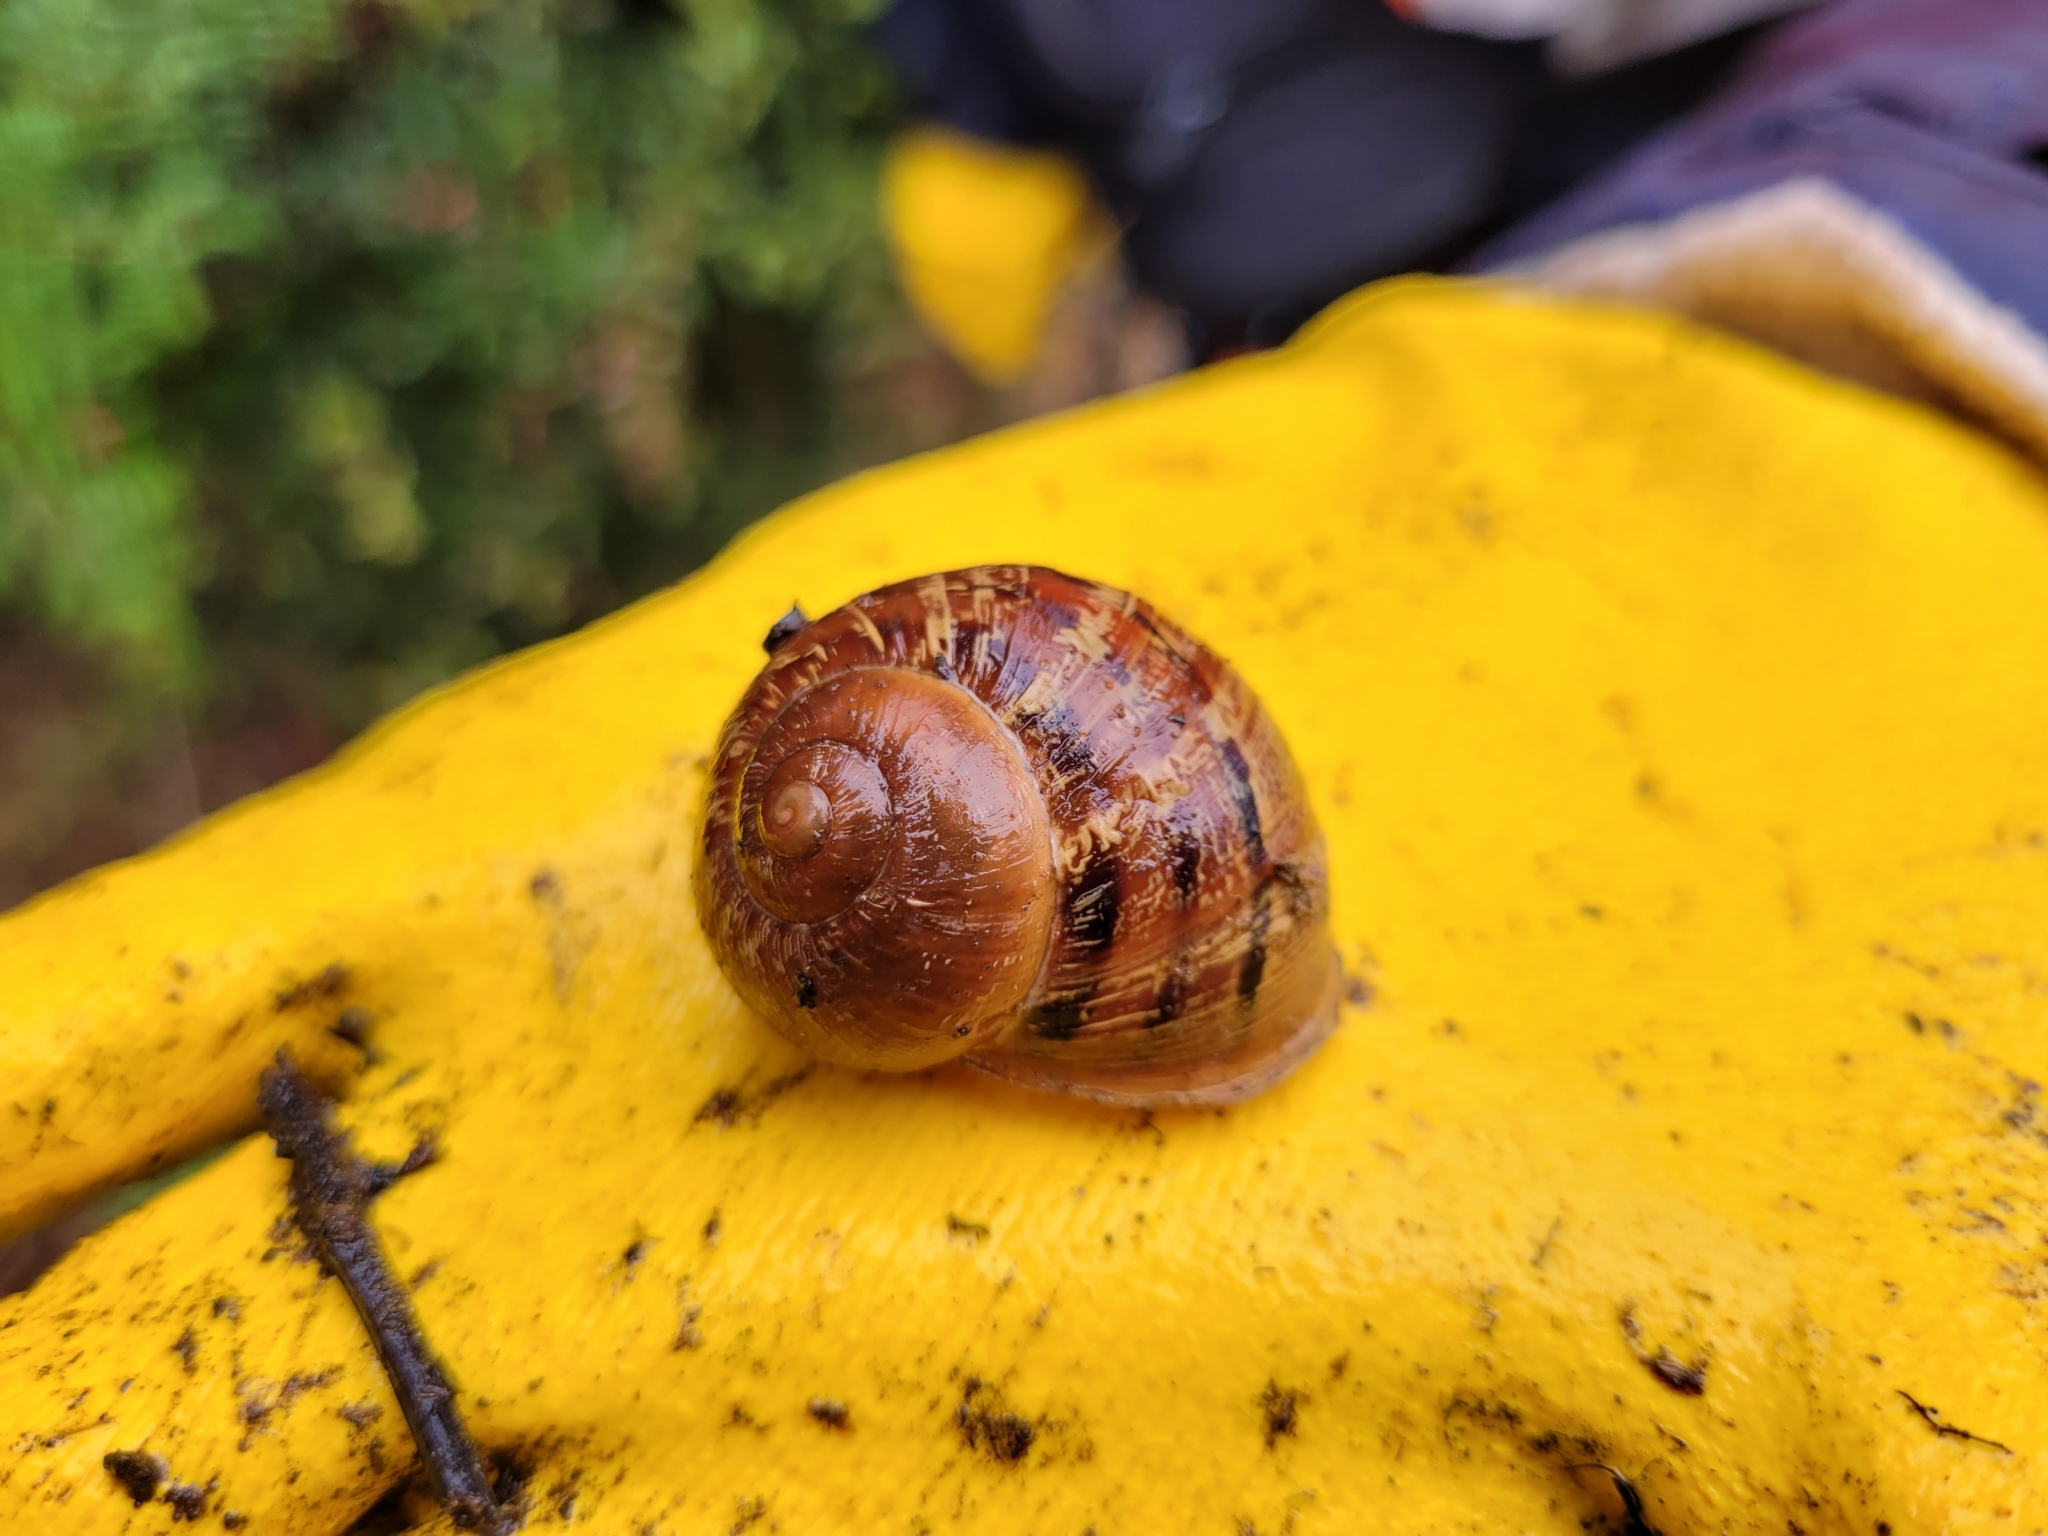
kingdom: Animalia
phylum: Mollusca
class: Gastropoda
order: Stylommatophora
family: Helicidae
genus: Cornu
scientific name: Cornu aspersum
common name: Brown garden snail
